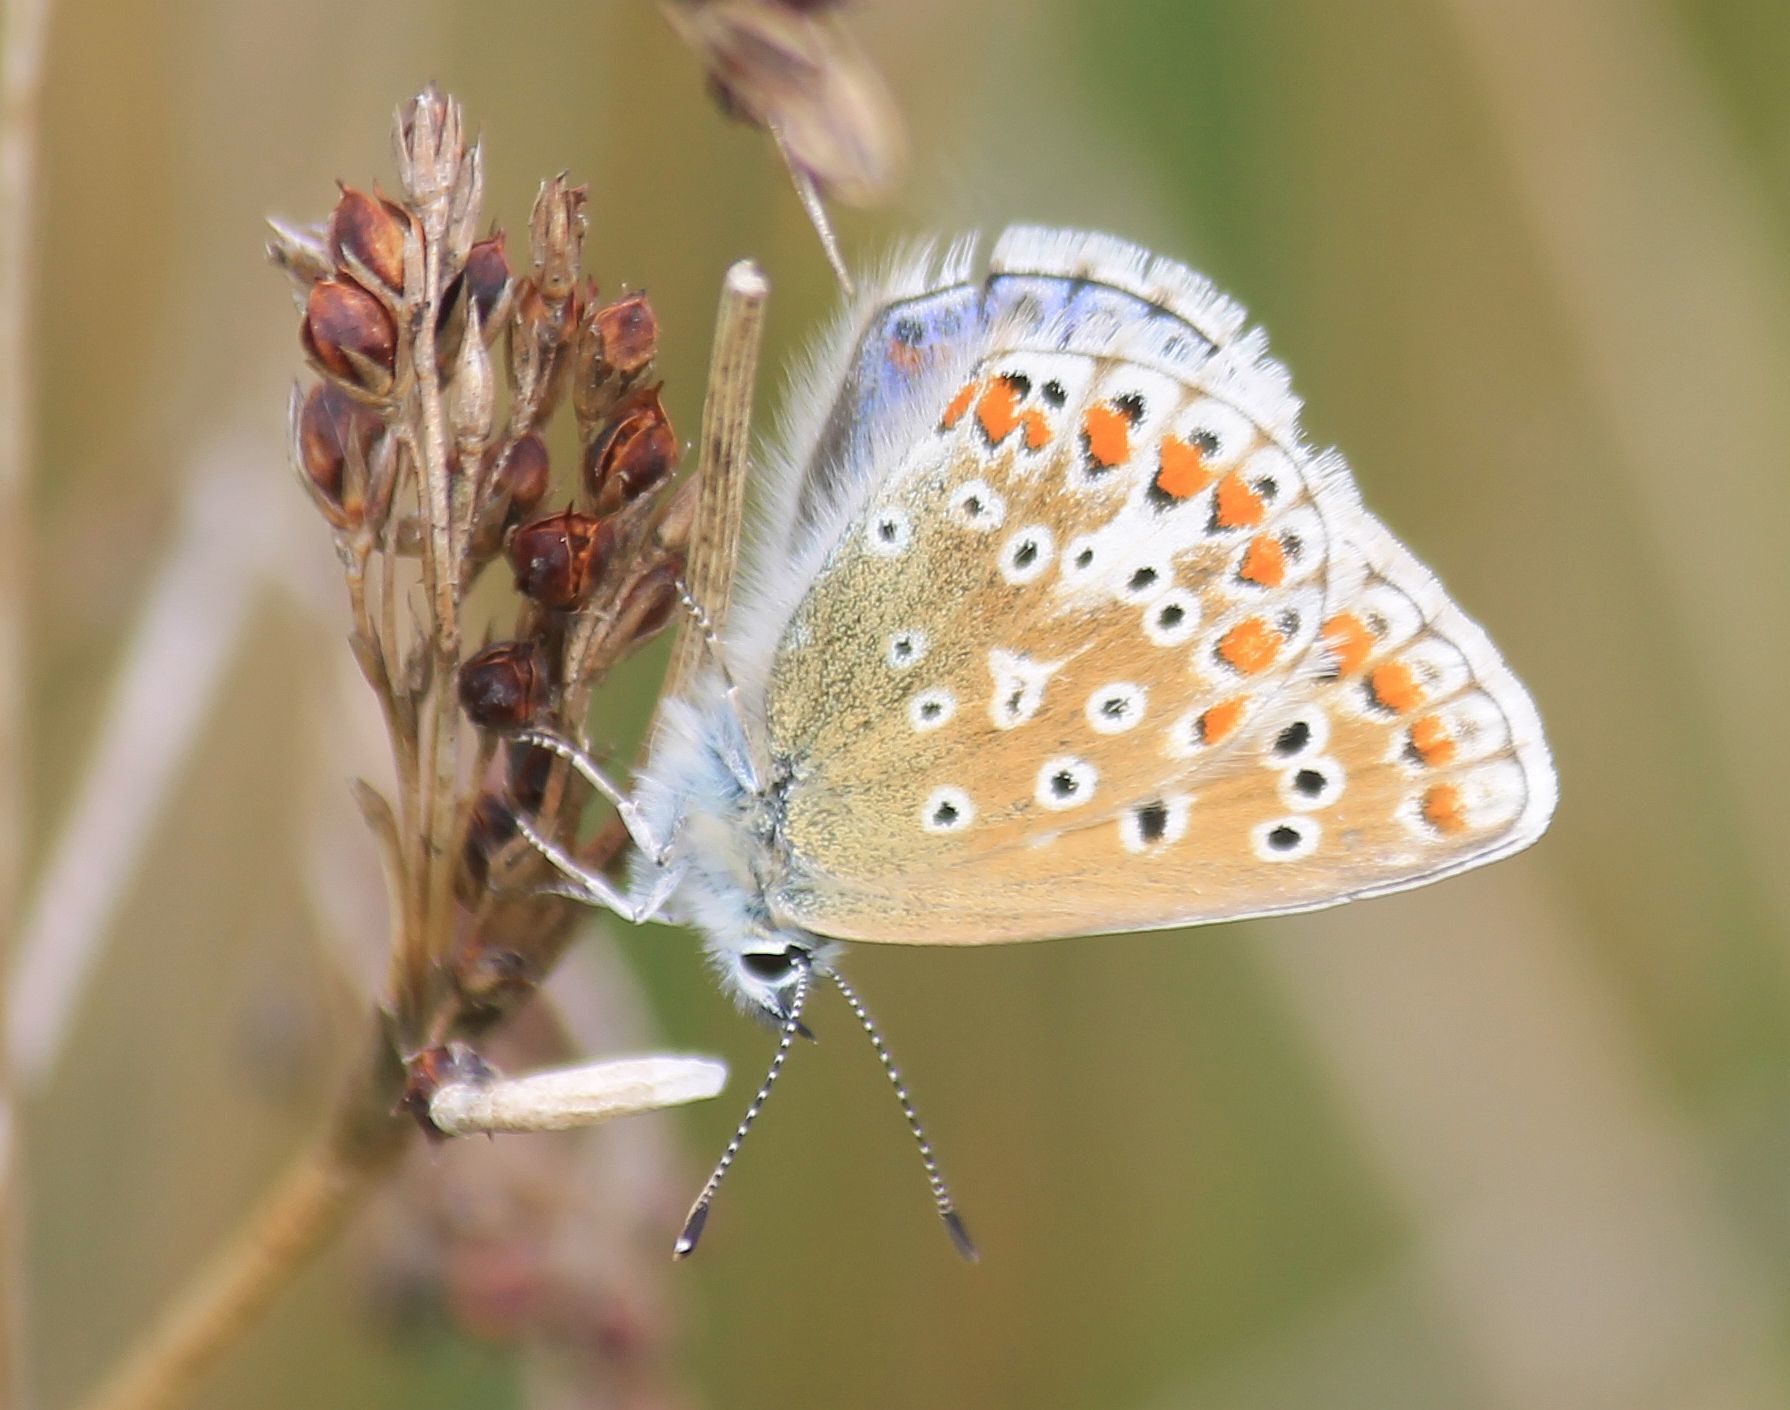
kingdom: Animalia
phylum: Arthropoda
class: Insecta
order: Lepidoptera
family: Lycaenidae
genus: Polyommatus
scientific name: Polyommatus icarus
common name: Common blue
